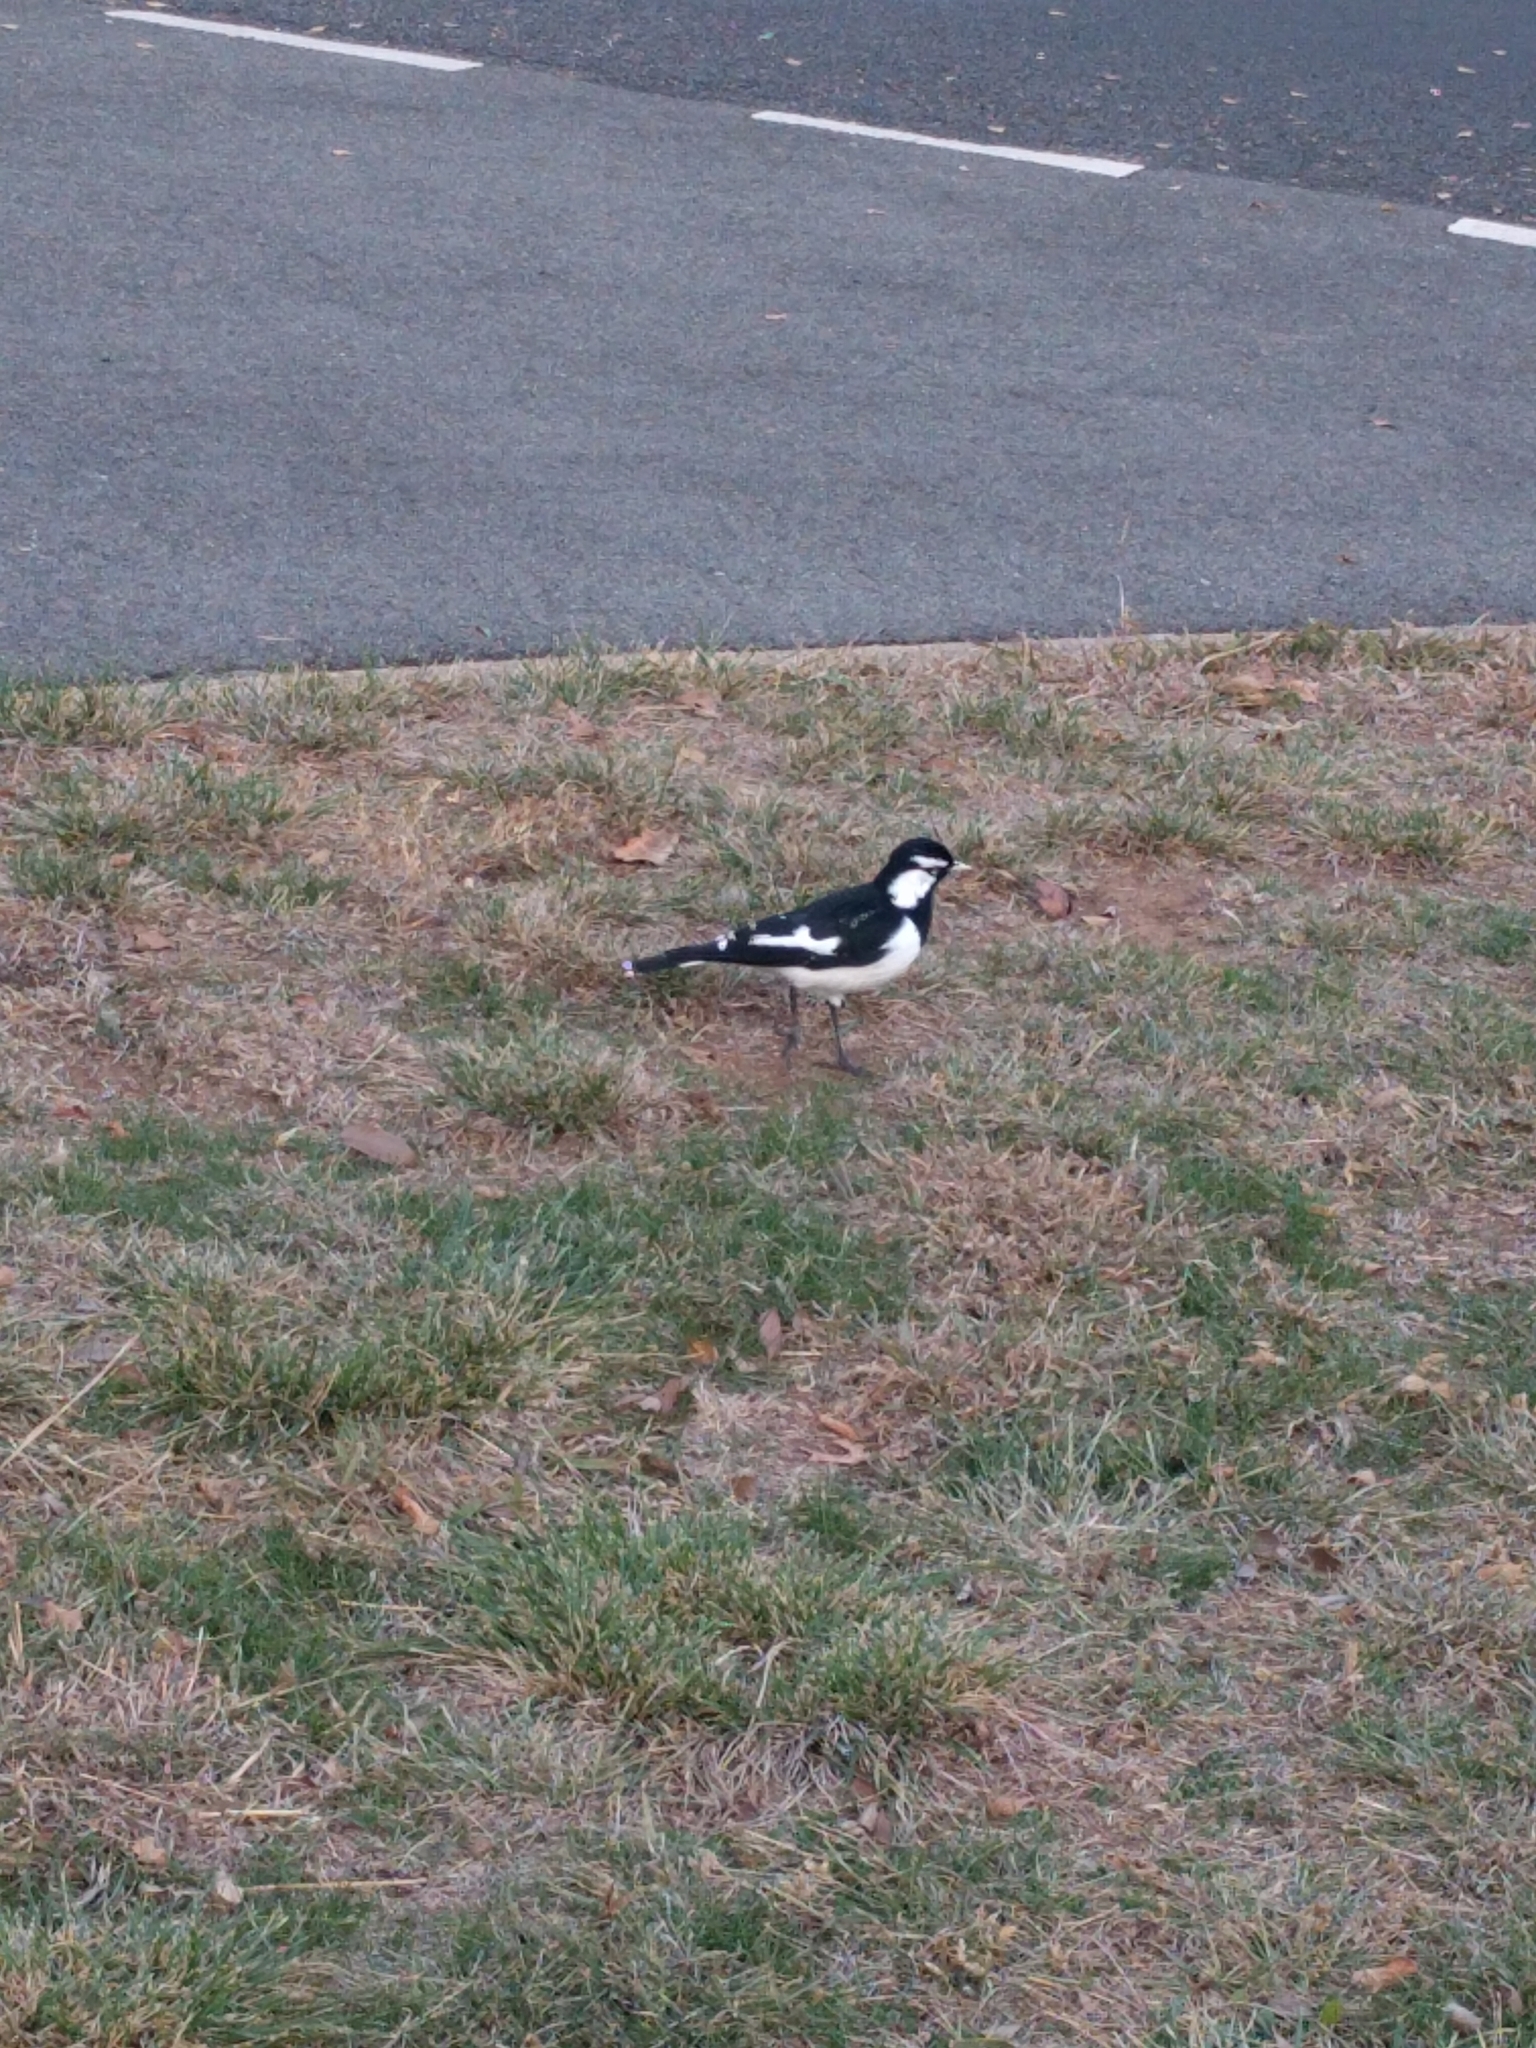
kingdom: Animalia
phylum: Chordata
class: Aves
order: Passeriformes
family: Monarchidae
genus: Grallina
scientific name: Grallina cyanoleuca
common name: Magpie-lark
